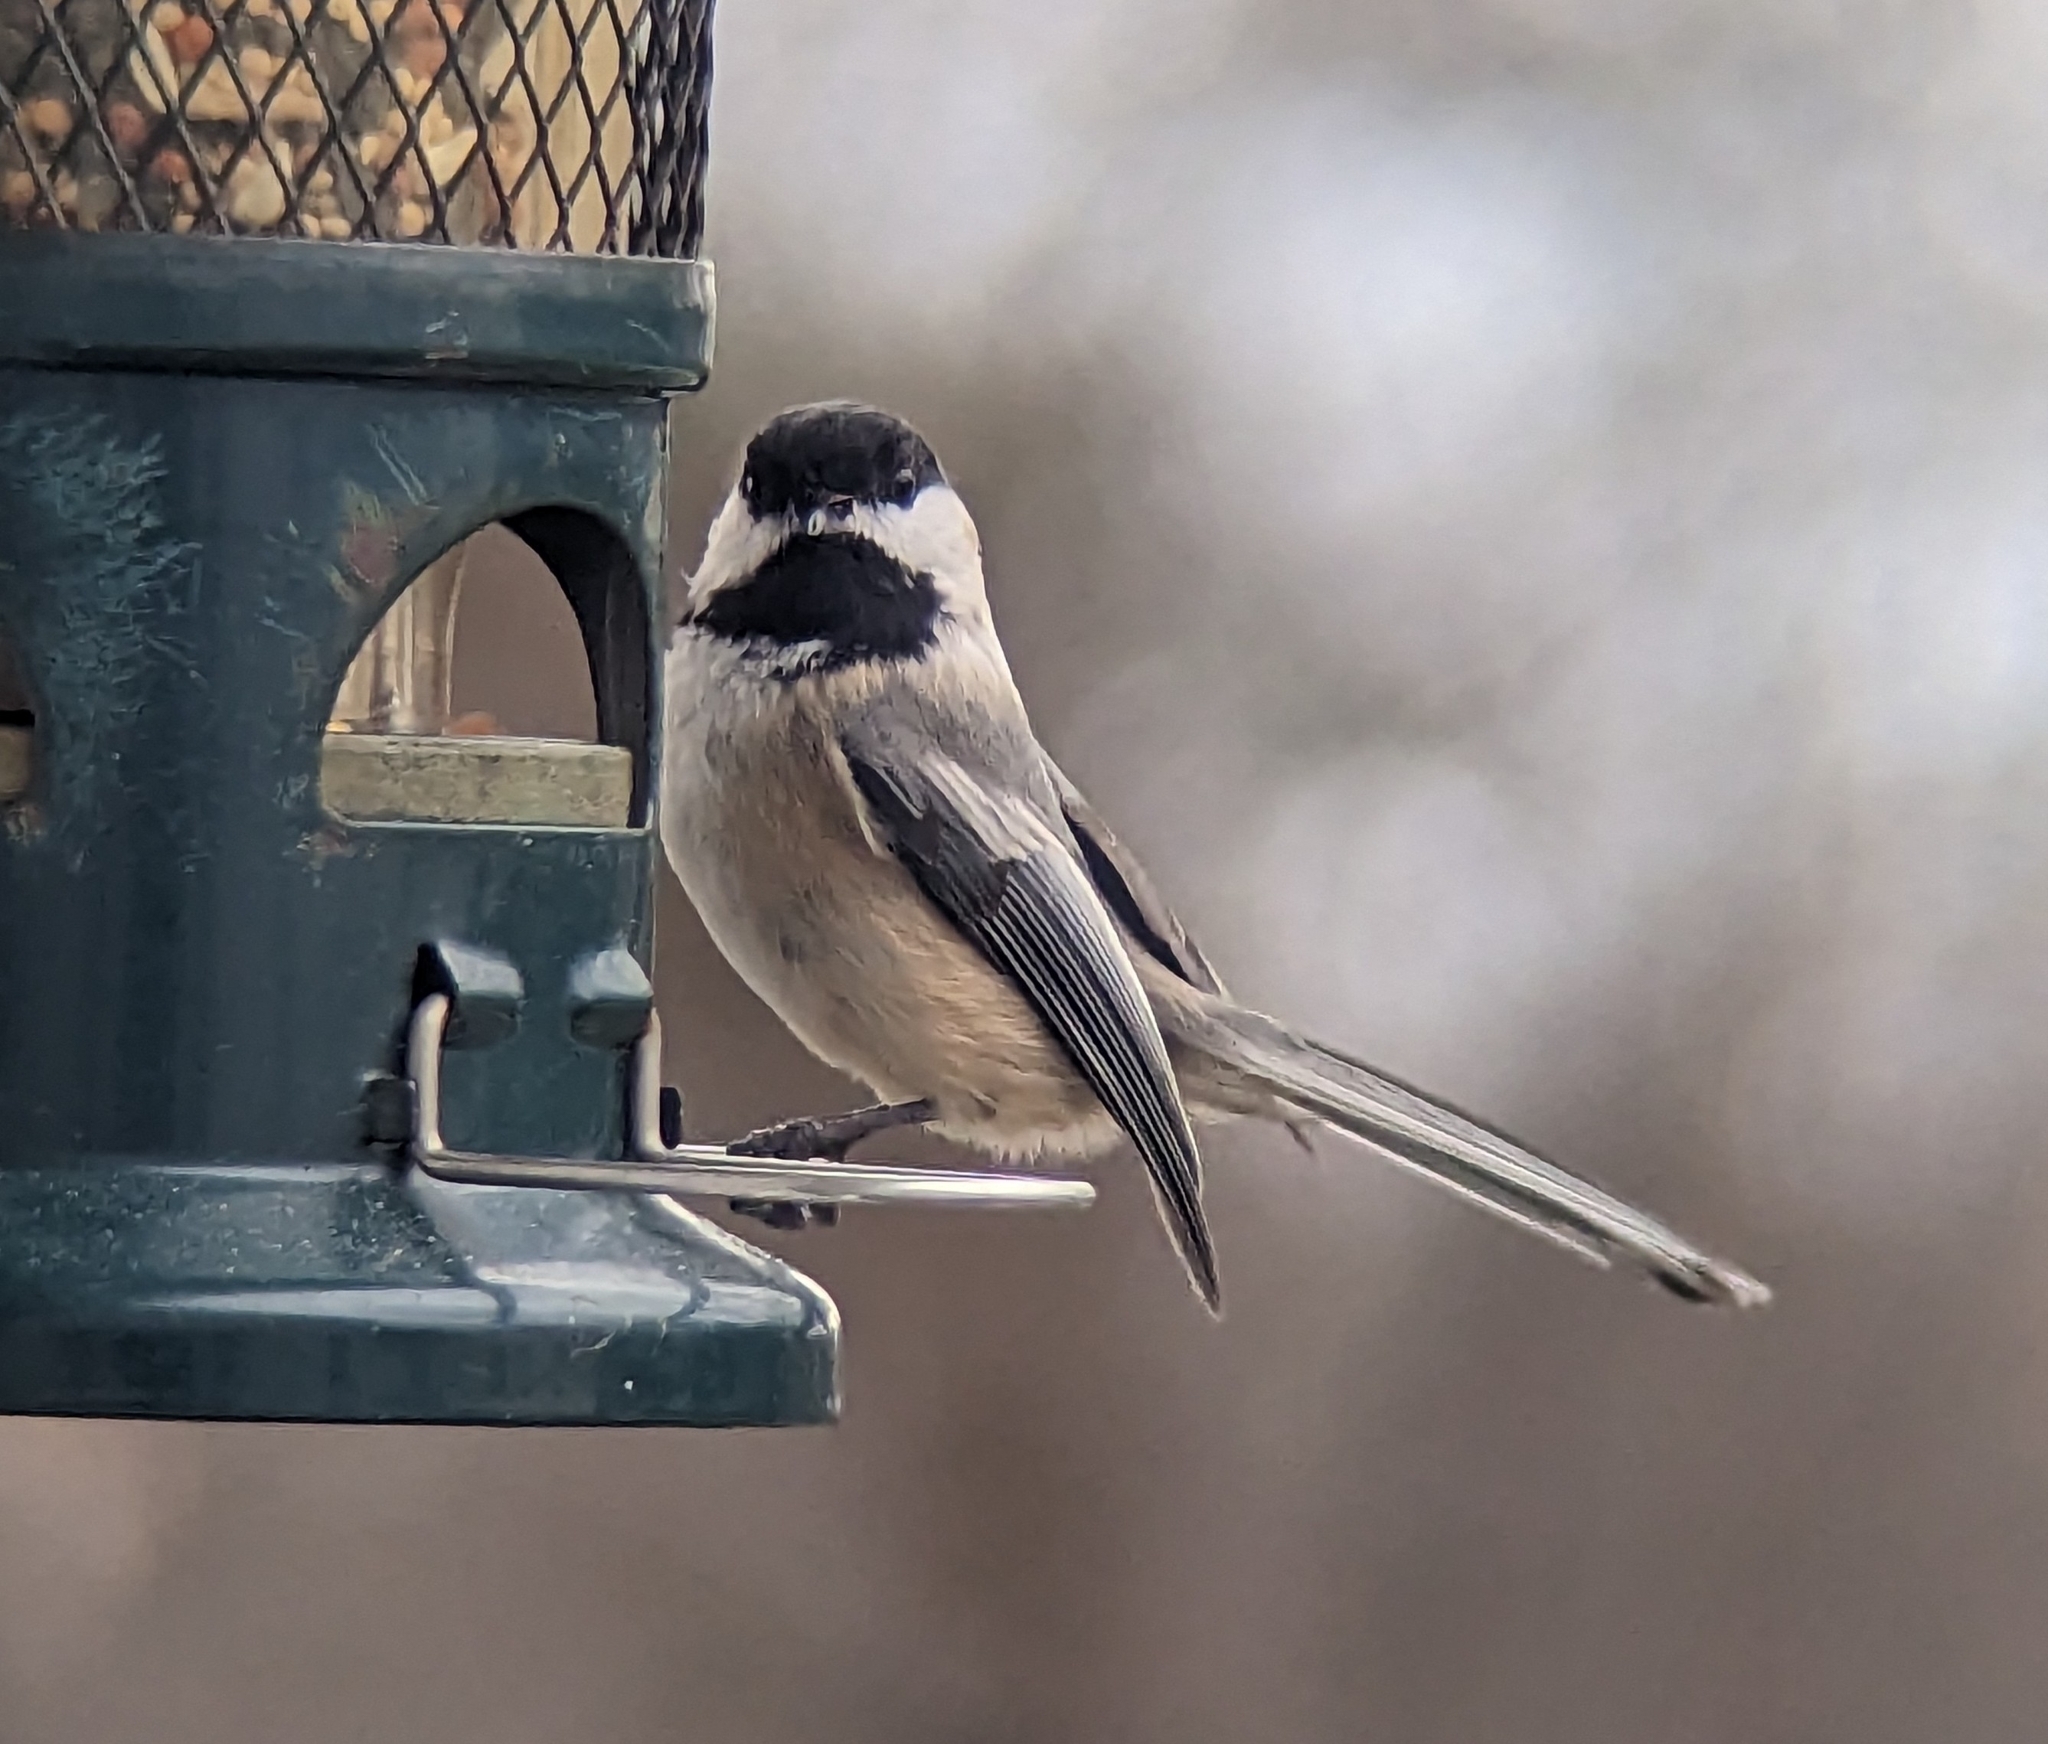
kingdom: Animalia
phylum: Chordata
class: Aves
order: Passeriformes
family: Paridae
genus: Poecile
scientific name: Poecile atricapillus
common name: Black-capped chickadee
